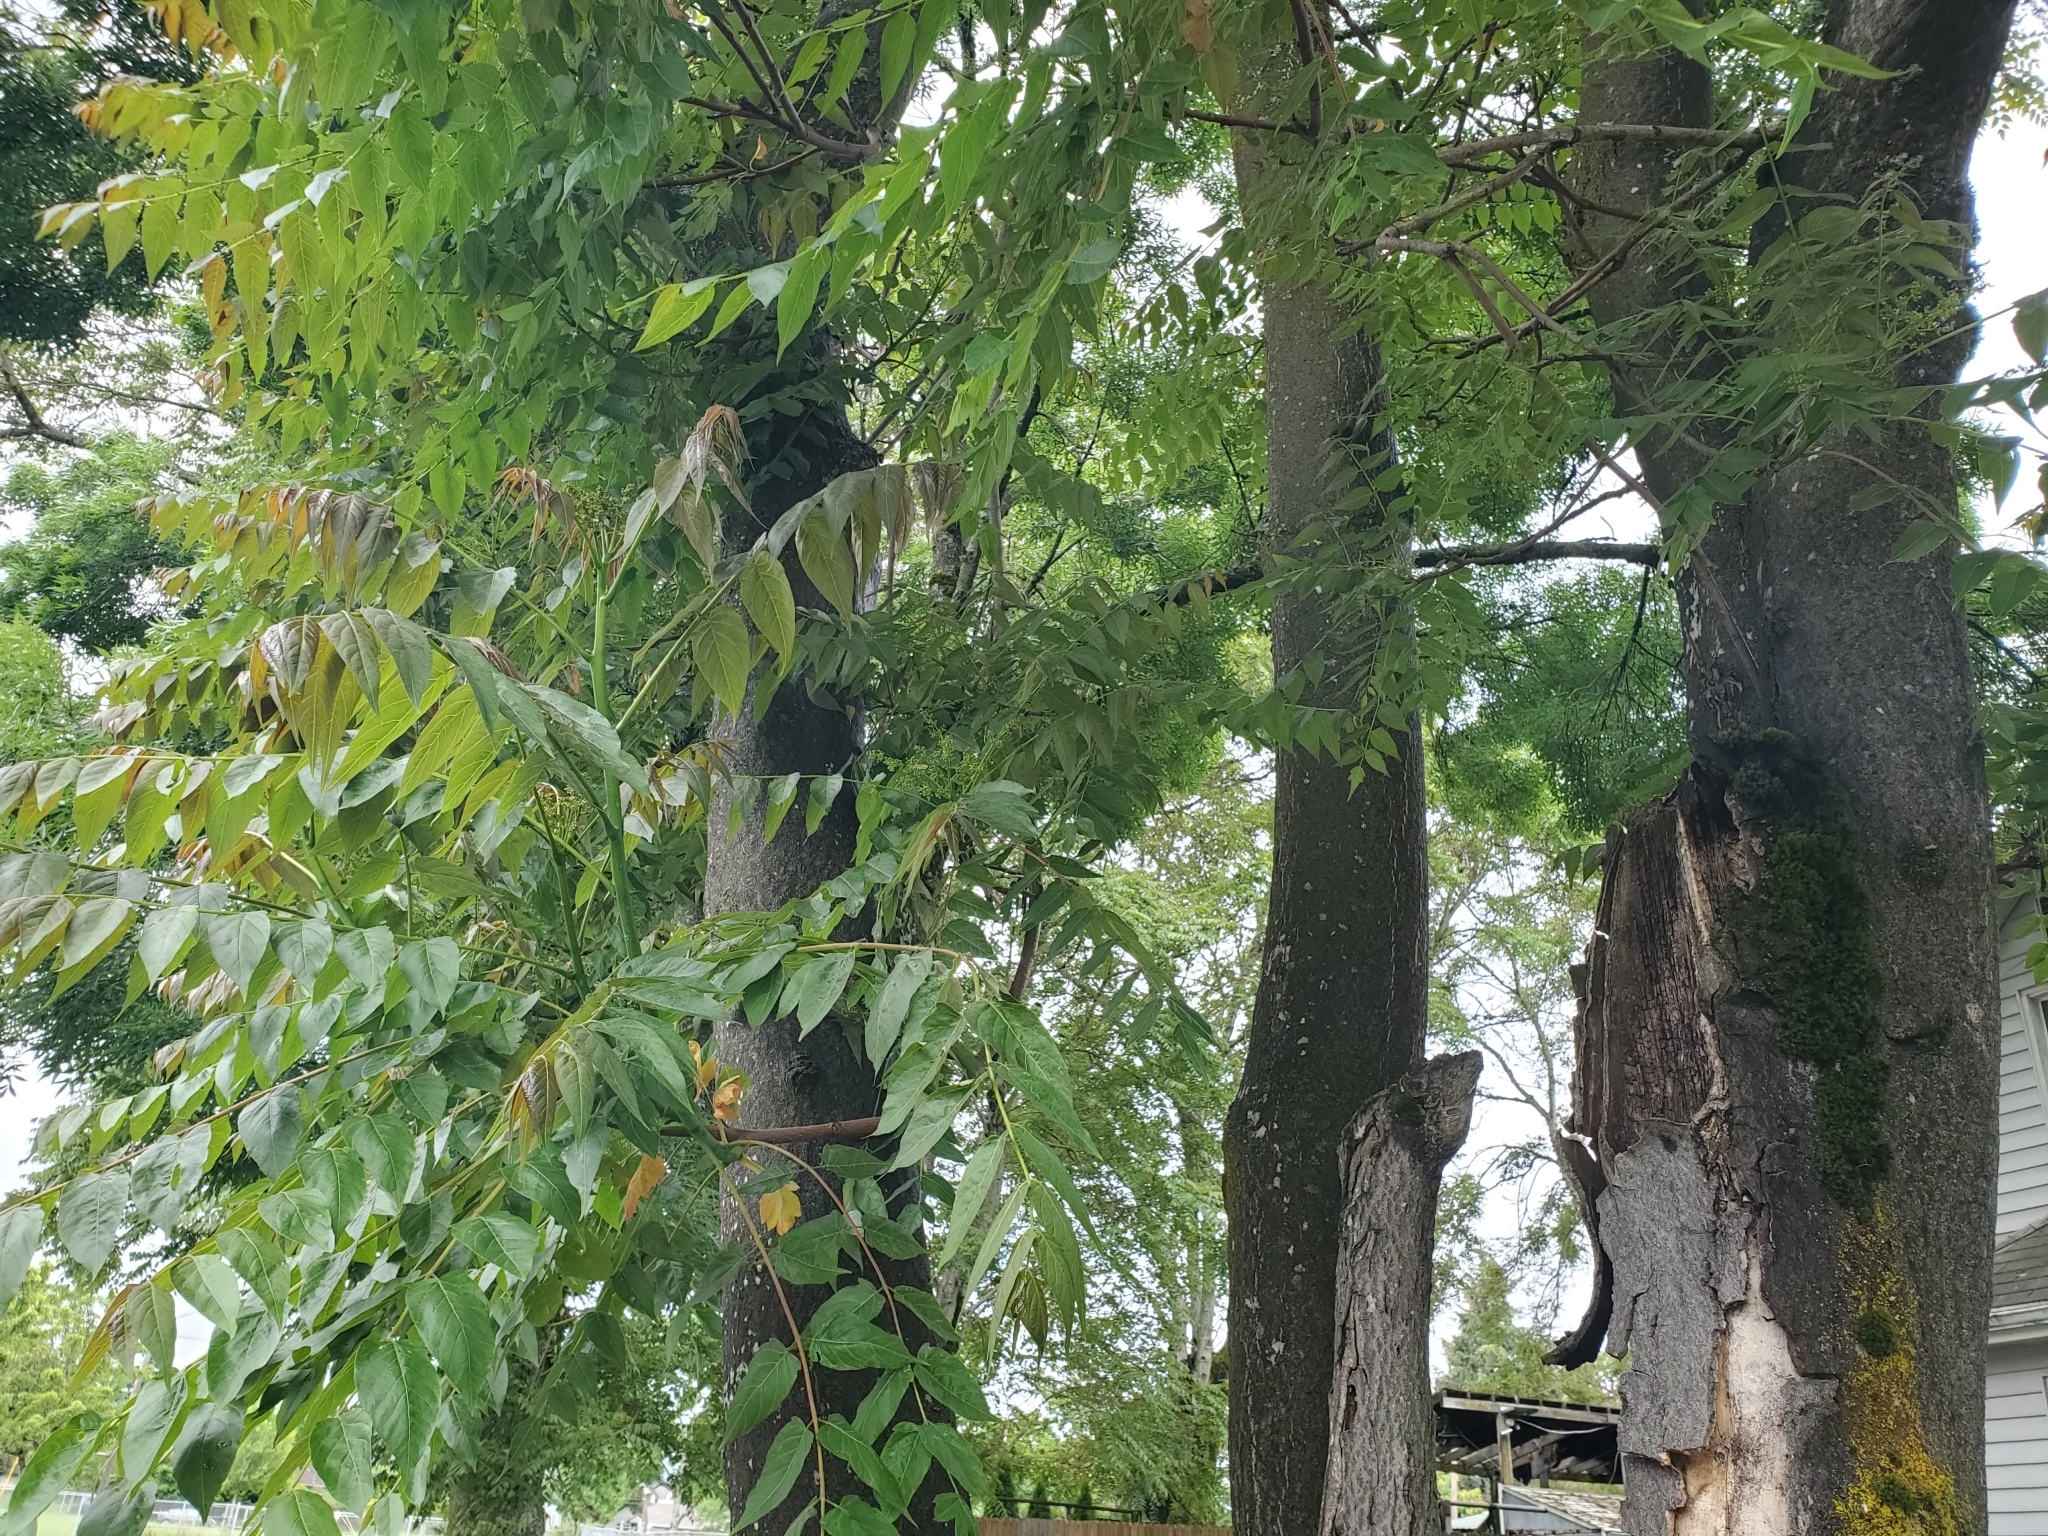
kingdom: Plantae
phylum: Tracheophyta
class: Magnoliopsida
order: Sapindales
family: Simaroubaceae
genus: Ailanthus
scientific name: Ailanthus altissima
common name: Tree-of-heaven
